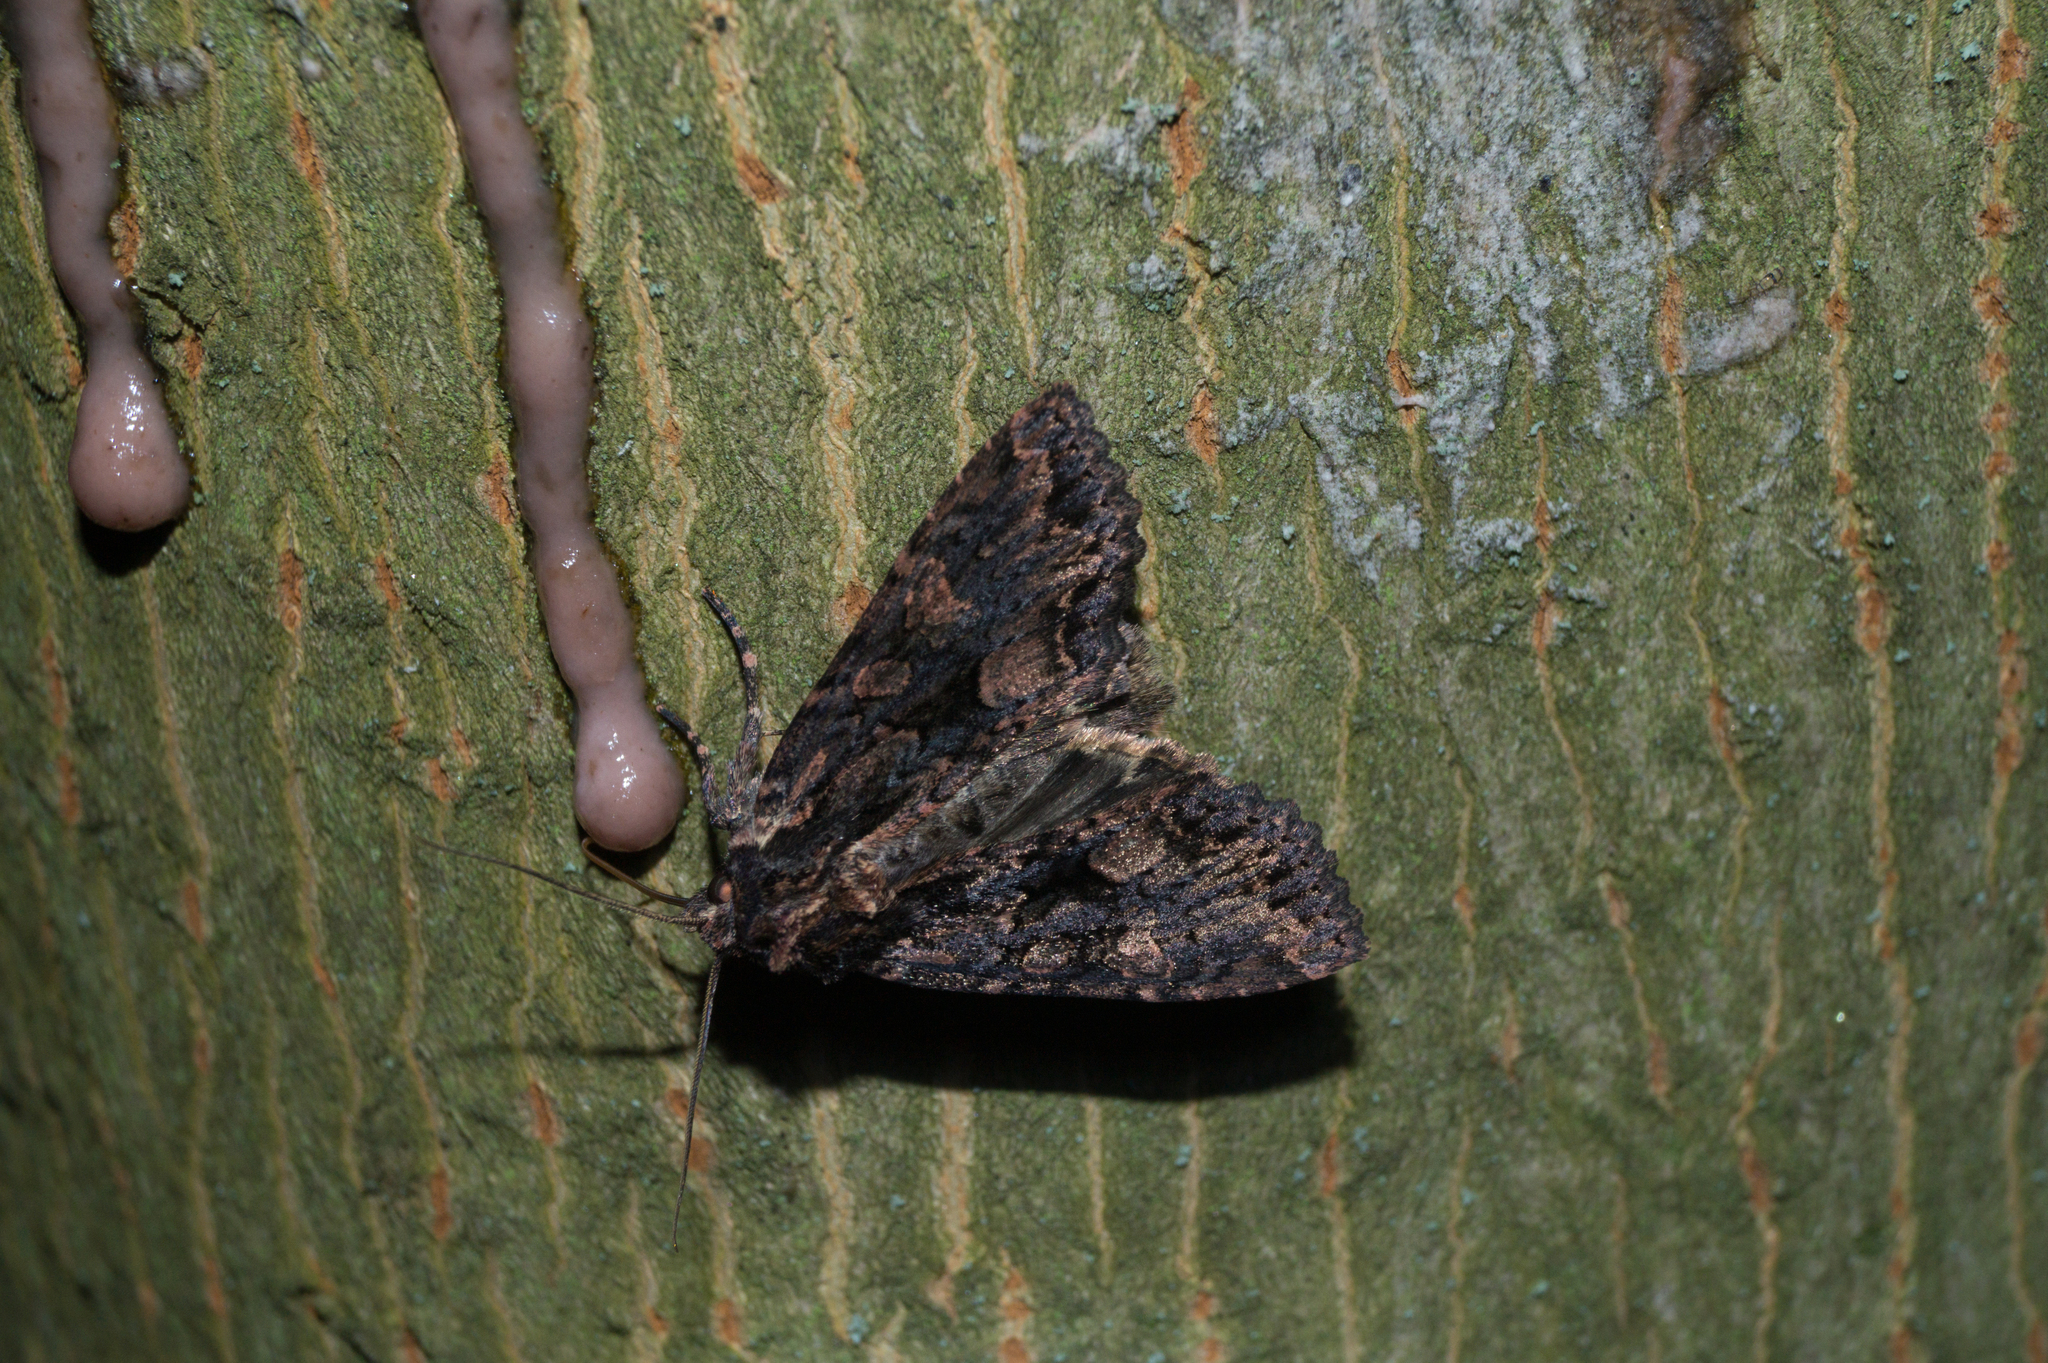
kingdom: Animalia
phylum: Arthropoda
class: Insecta
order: Lepidoptera
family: Noctuidae
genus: Mniotype
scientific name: Mniotype satura
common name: Beautiful arches
